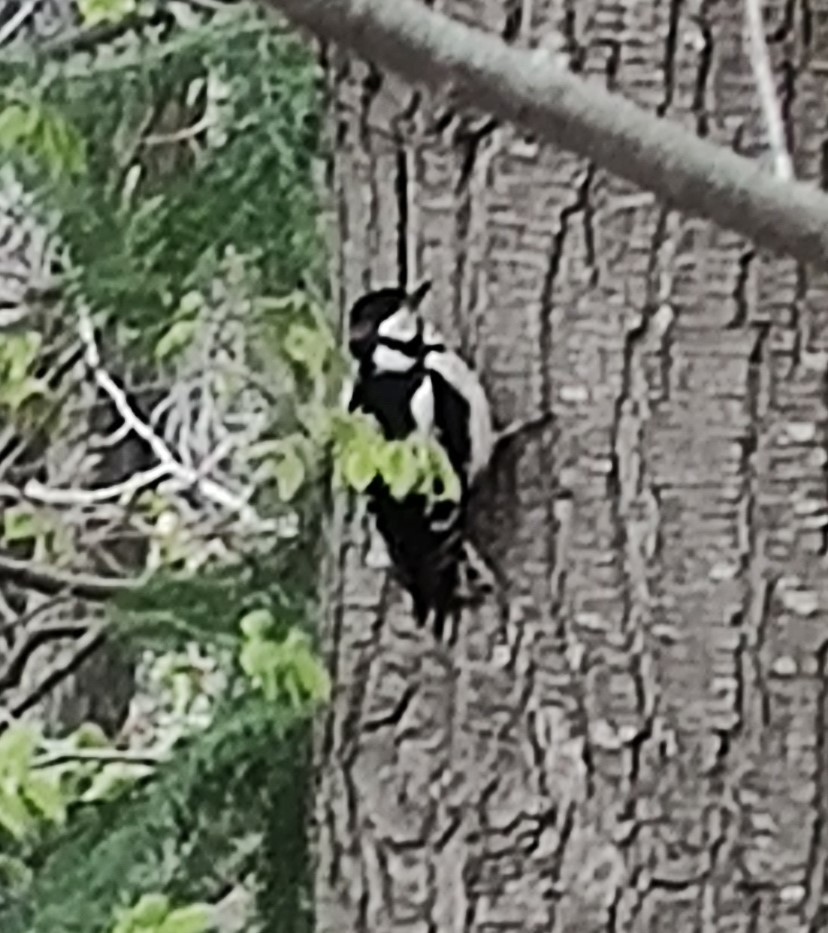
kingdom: Animalia
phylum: Chordata
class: Aves
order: Piciformes
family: Picidae
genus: Dendrocopos
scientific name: Dendrocopos major
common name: Great spotted woodpecker
